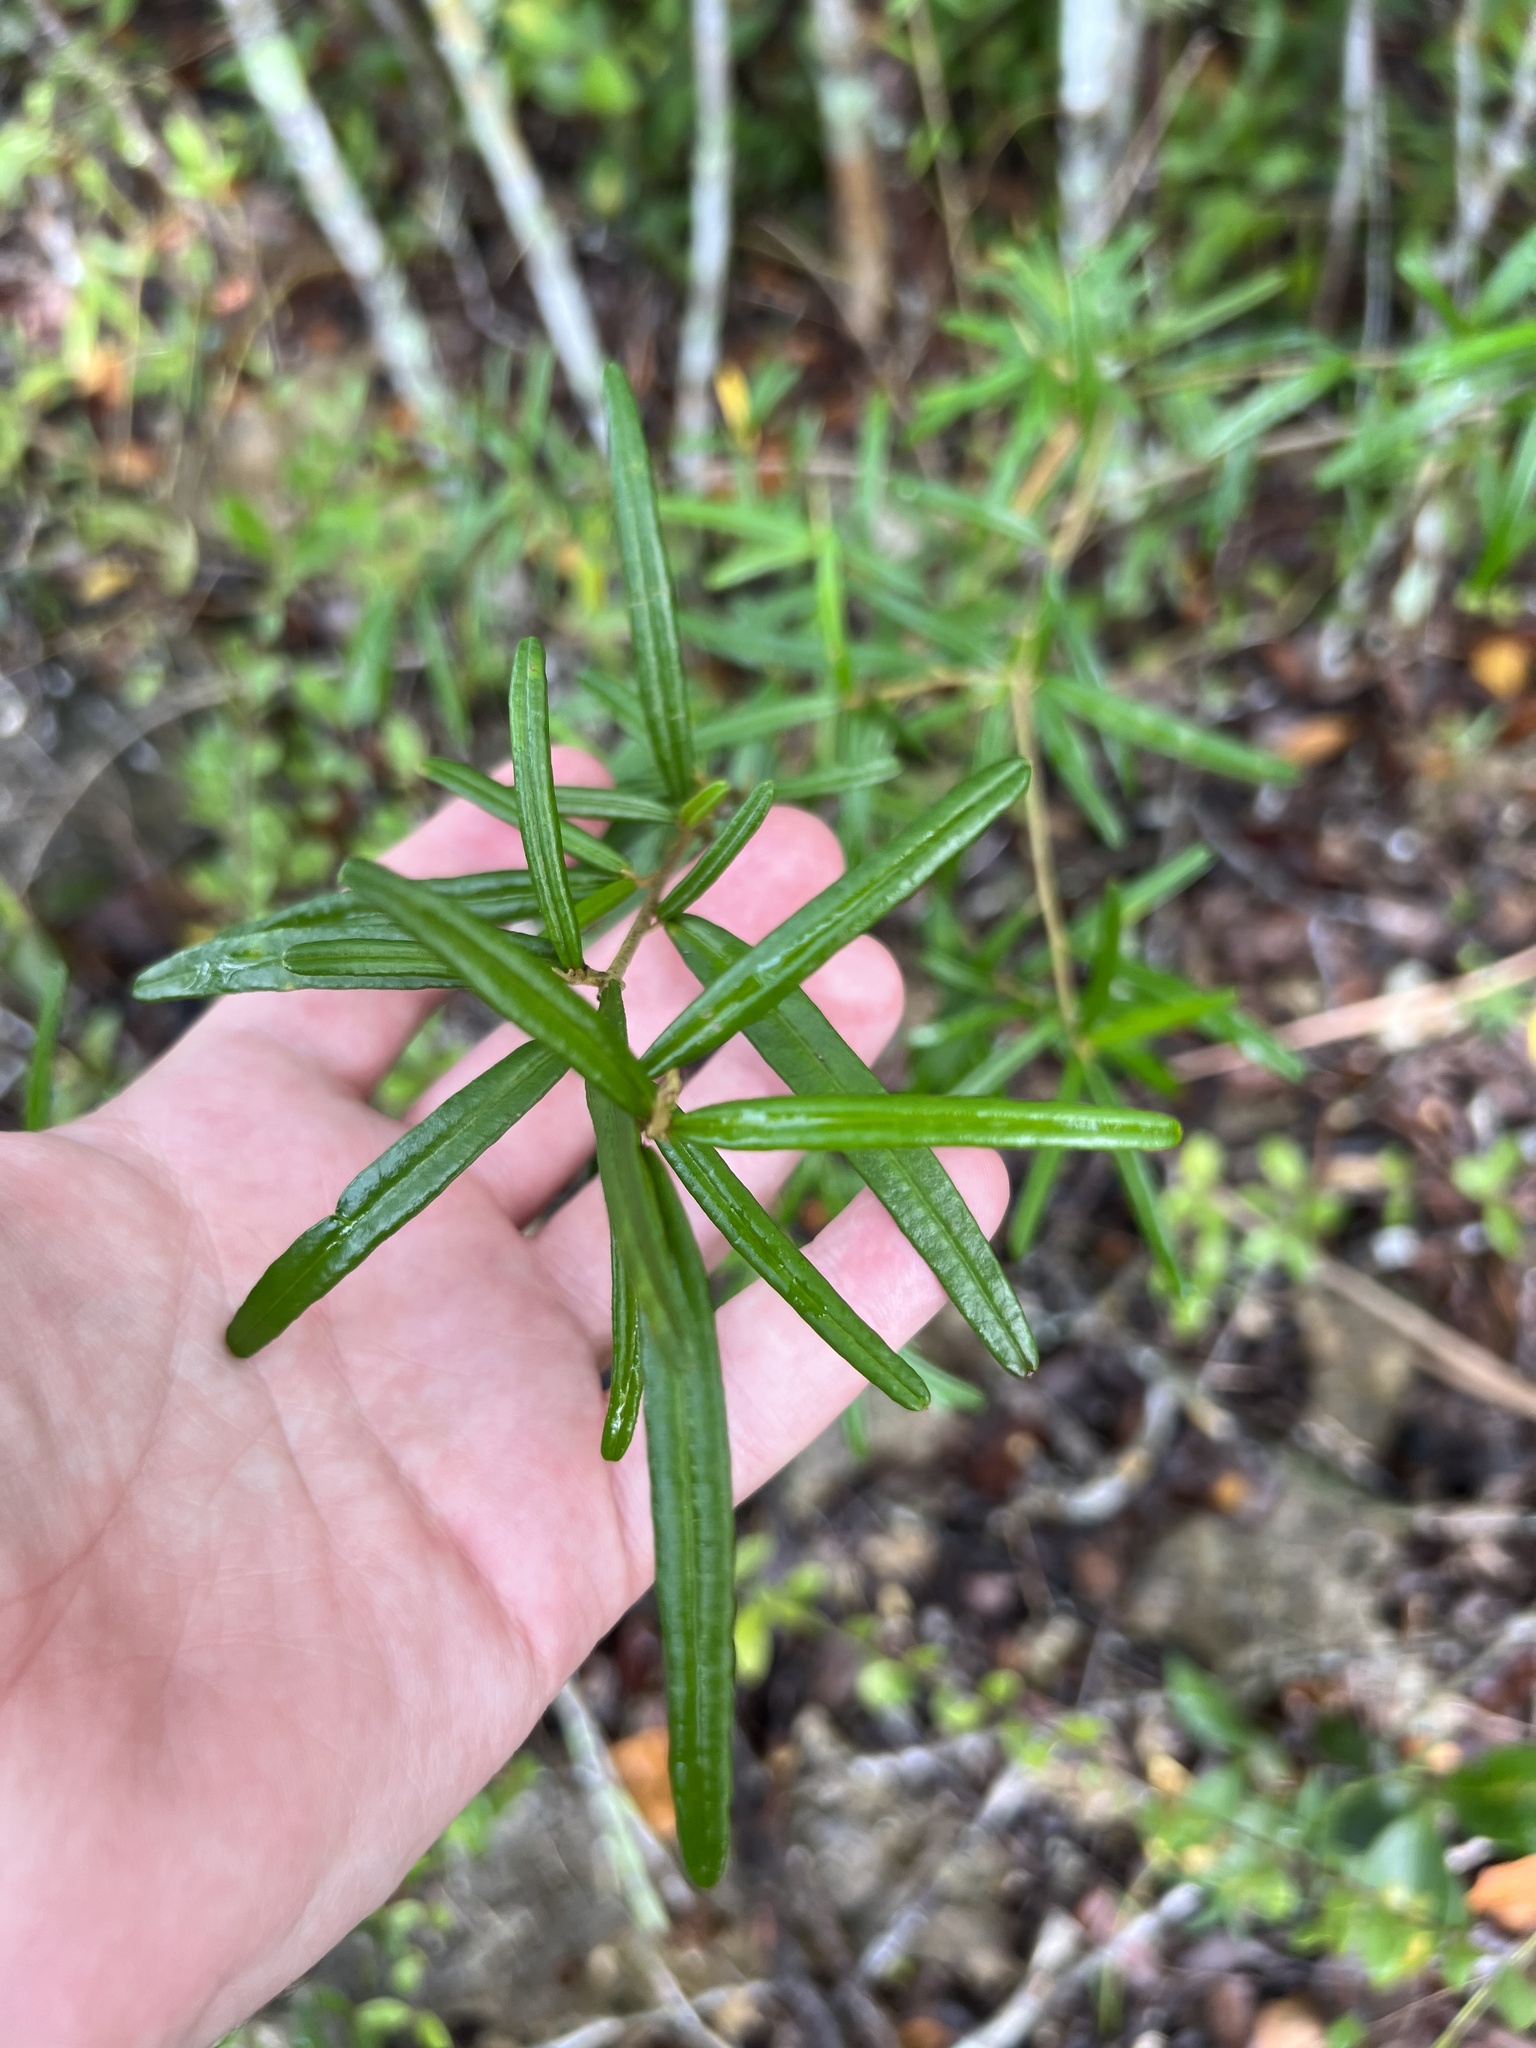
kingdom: Plantae
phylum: Tracheophyta
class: Magnoliopsida
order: Malpighiales
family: Euphorbiaceae
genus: Croton
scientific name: Croton linearis
